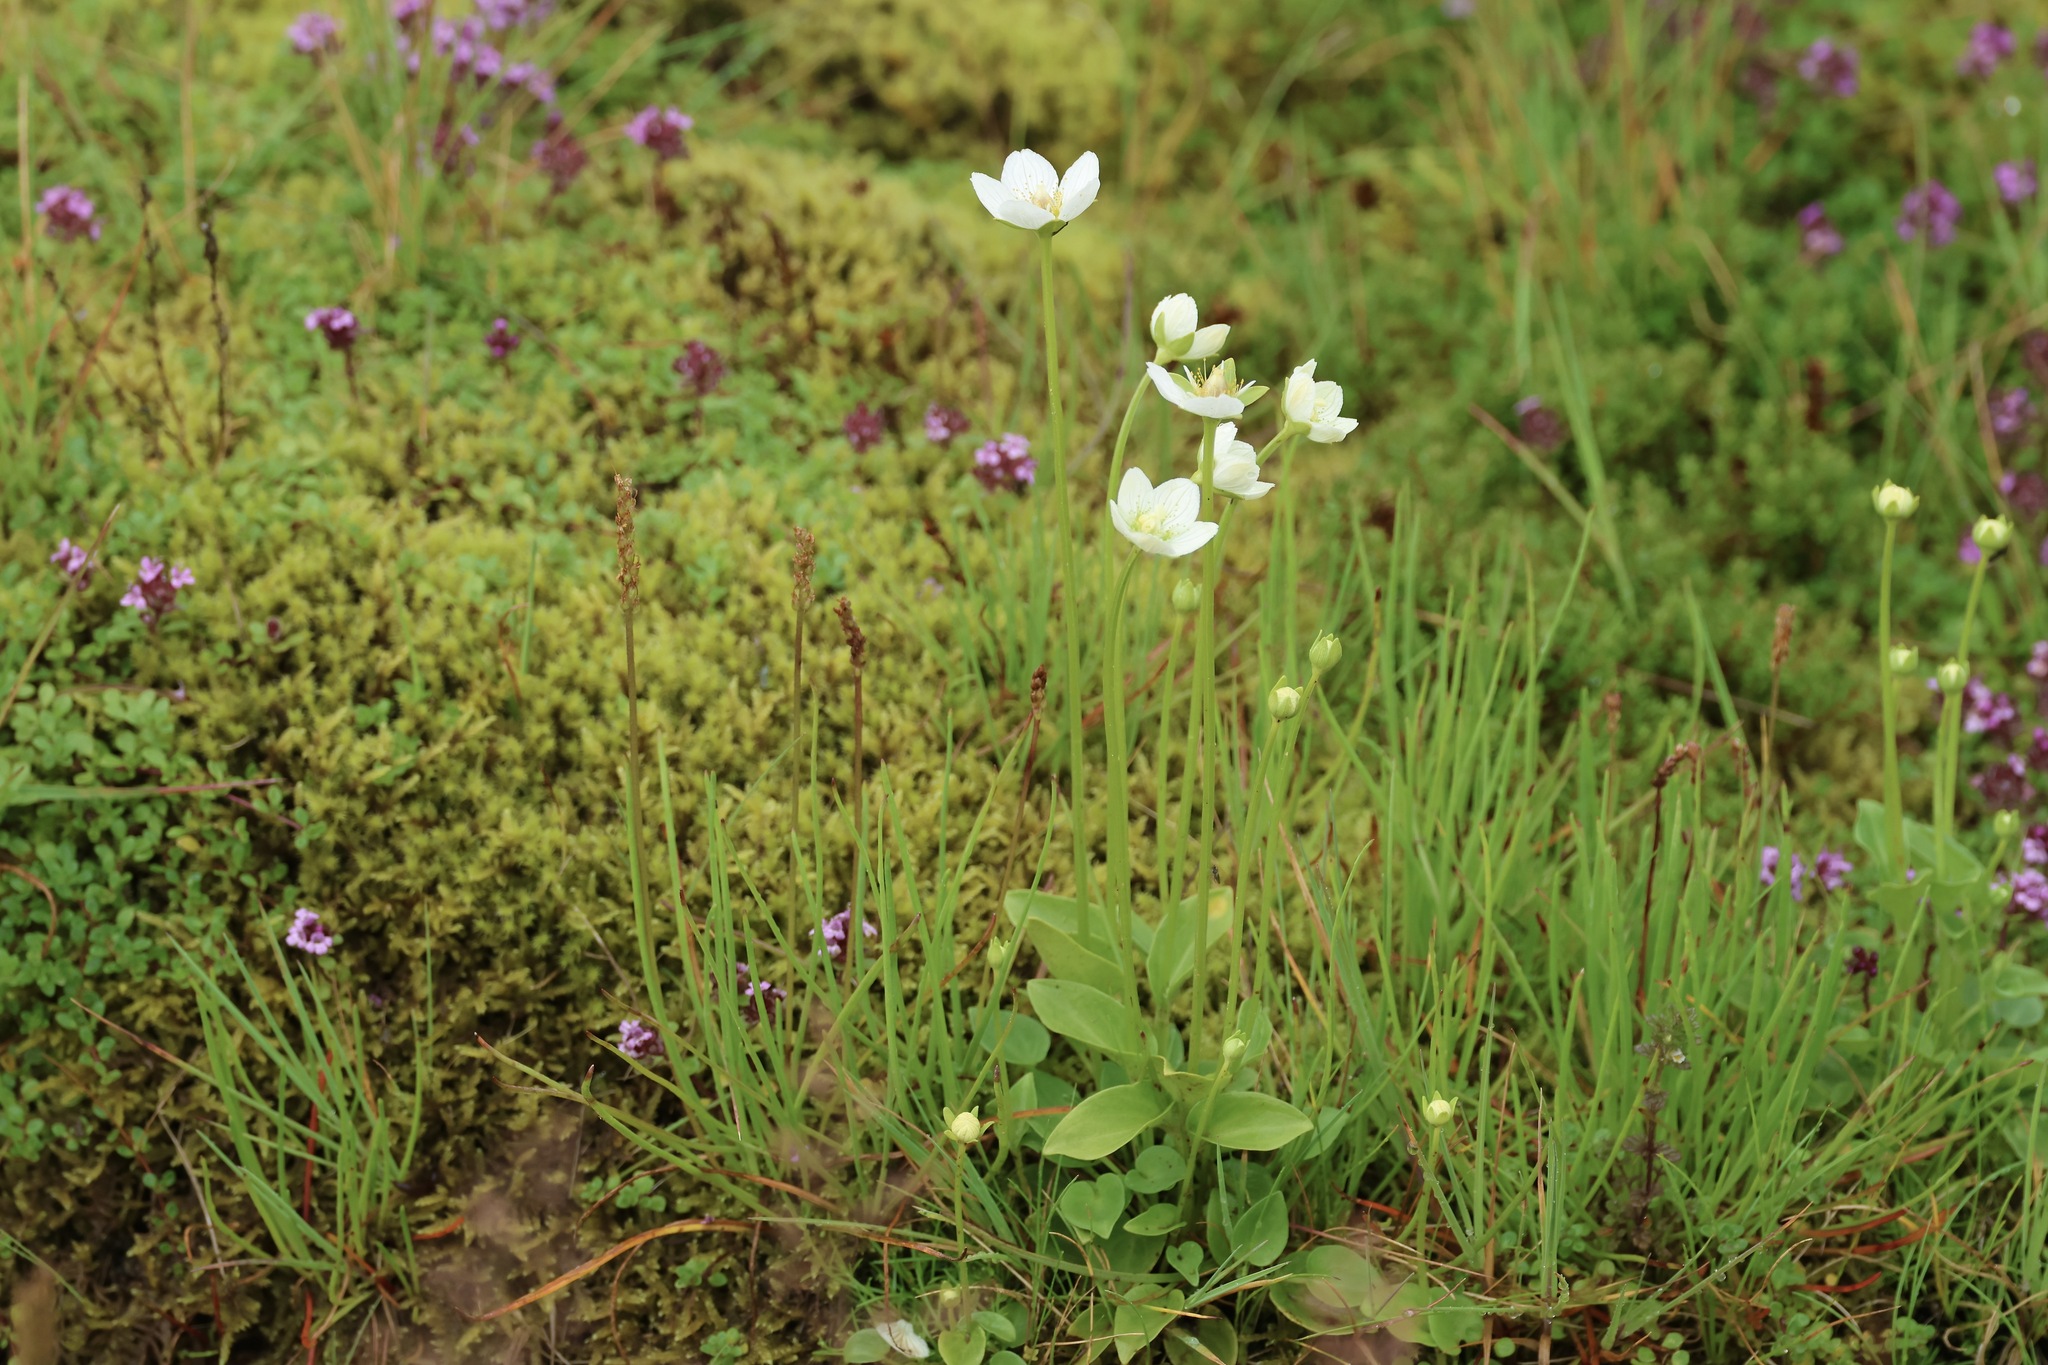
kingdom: Plantae
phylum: Tracheophyta
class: Magnoliopsida
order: Celastrales
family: Parnassiaceae
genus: Parnassia
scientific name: Parnassia palustris
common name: Grass-of-parnassus
